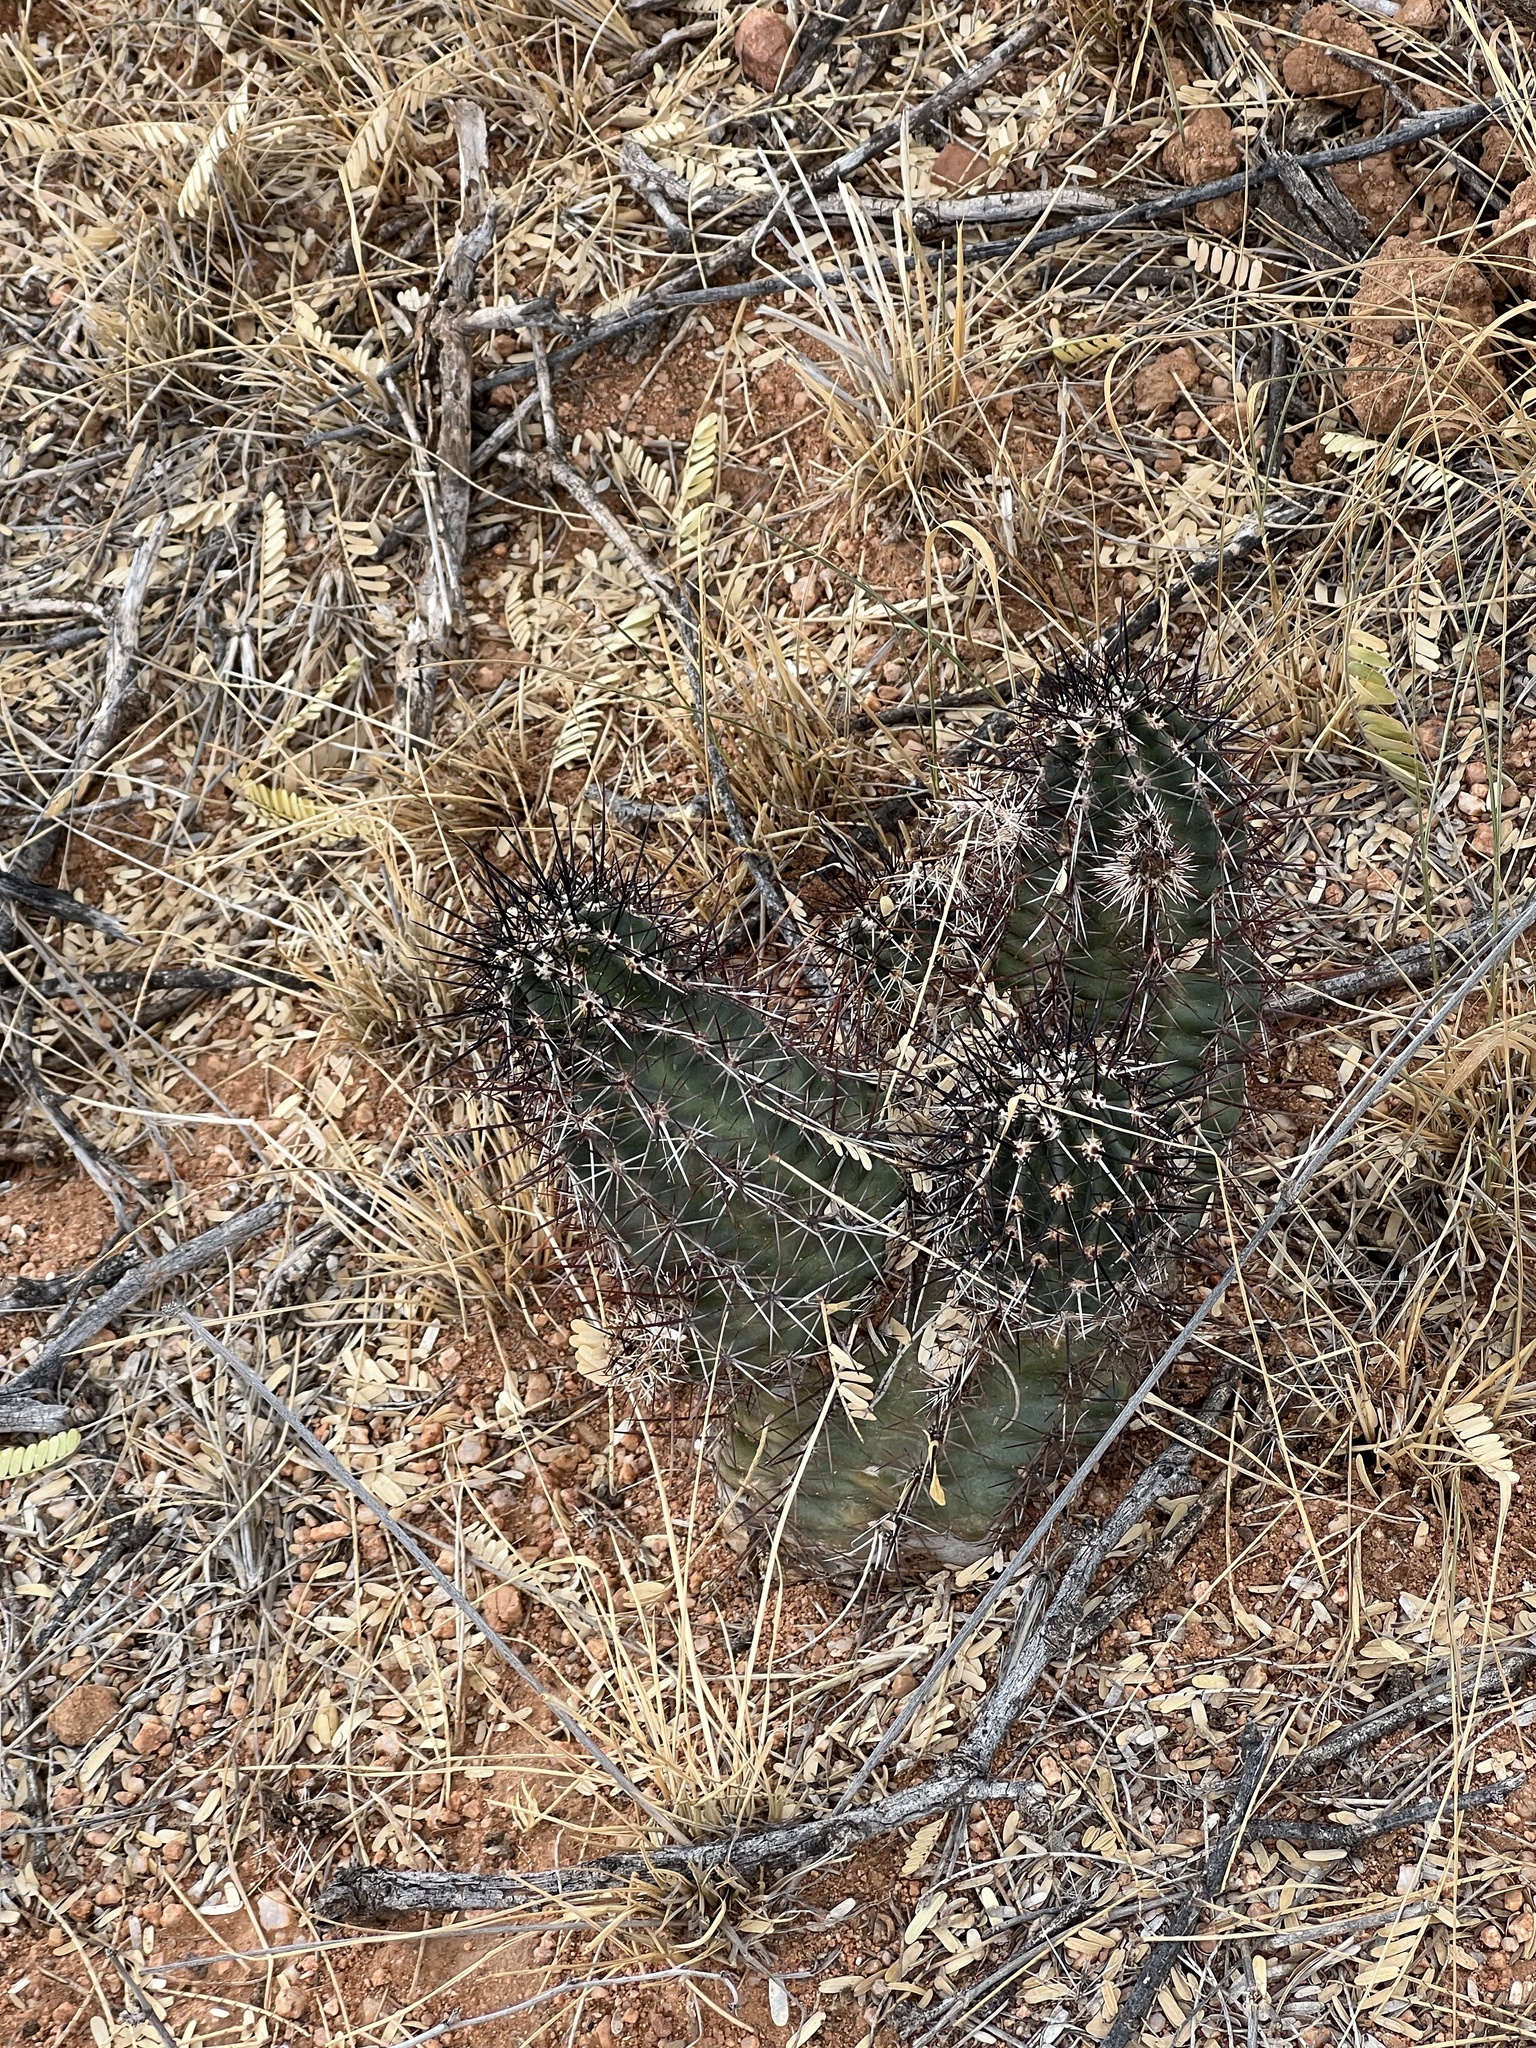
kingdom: Plantae
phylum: Tracheophyta
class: Magnoliopsida
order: Caryophyllales
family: Cactaceae
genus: Echinocereus
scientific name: Echinocereus fasciculatus
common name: Bundle hedgehog
